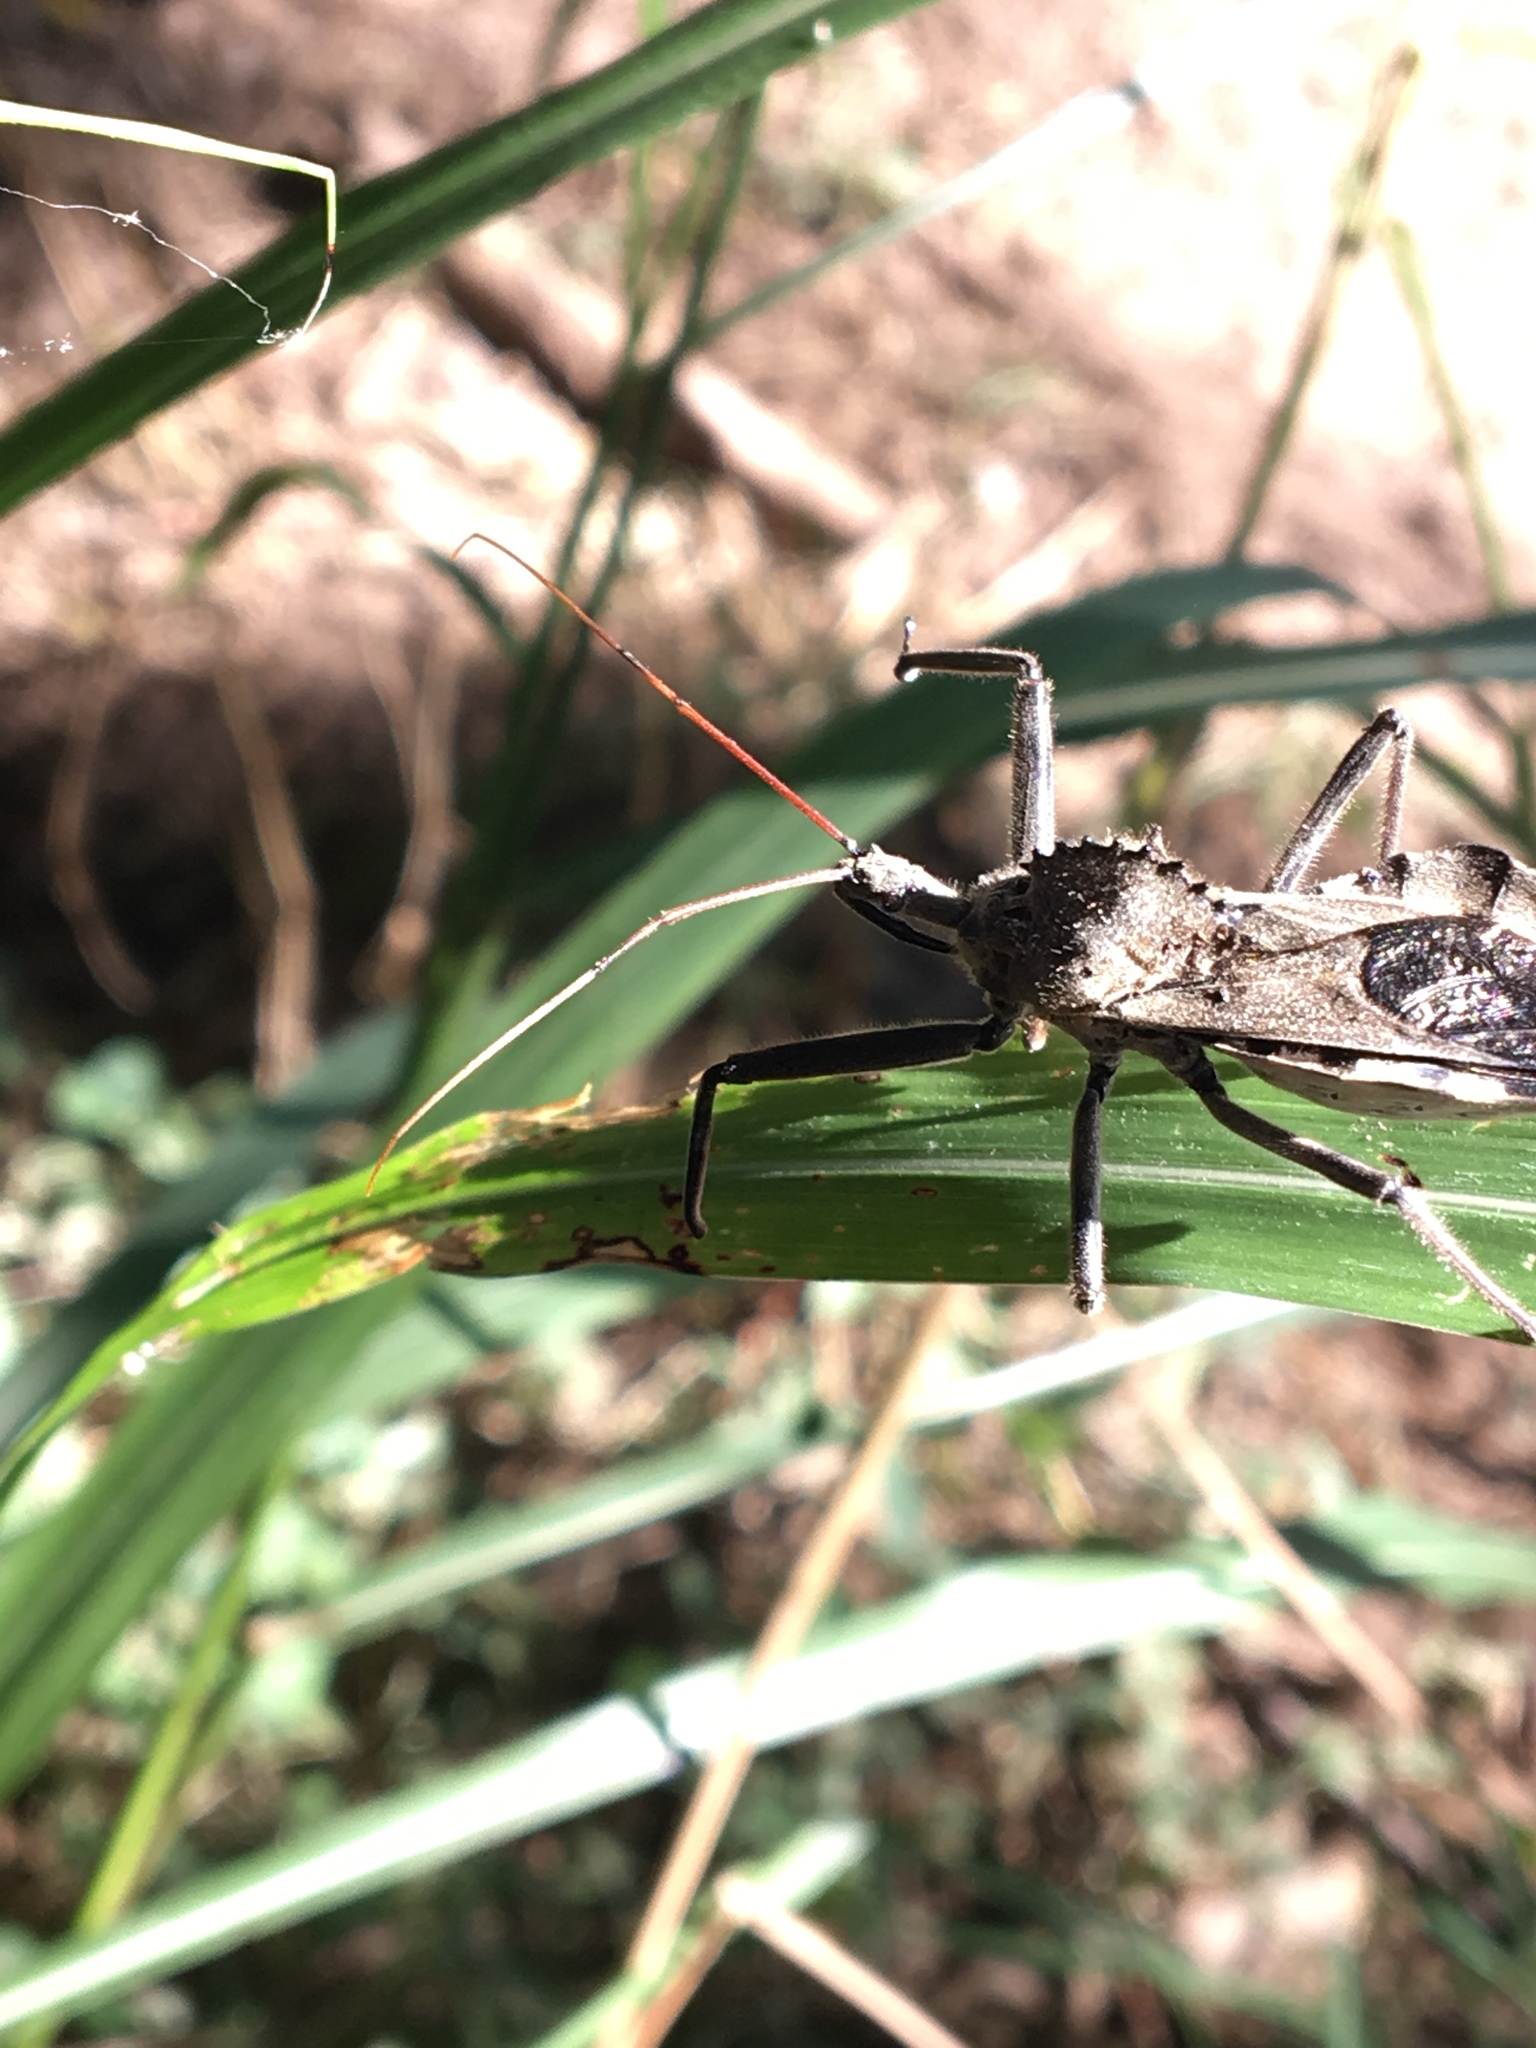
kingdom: Animalia
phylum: Arthropoda
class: Insecta
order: Hemiptera
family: Reduviidae
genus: Arilus
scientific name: Arilus cristatus
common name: North american wheel bug
